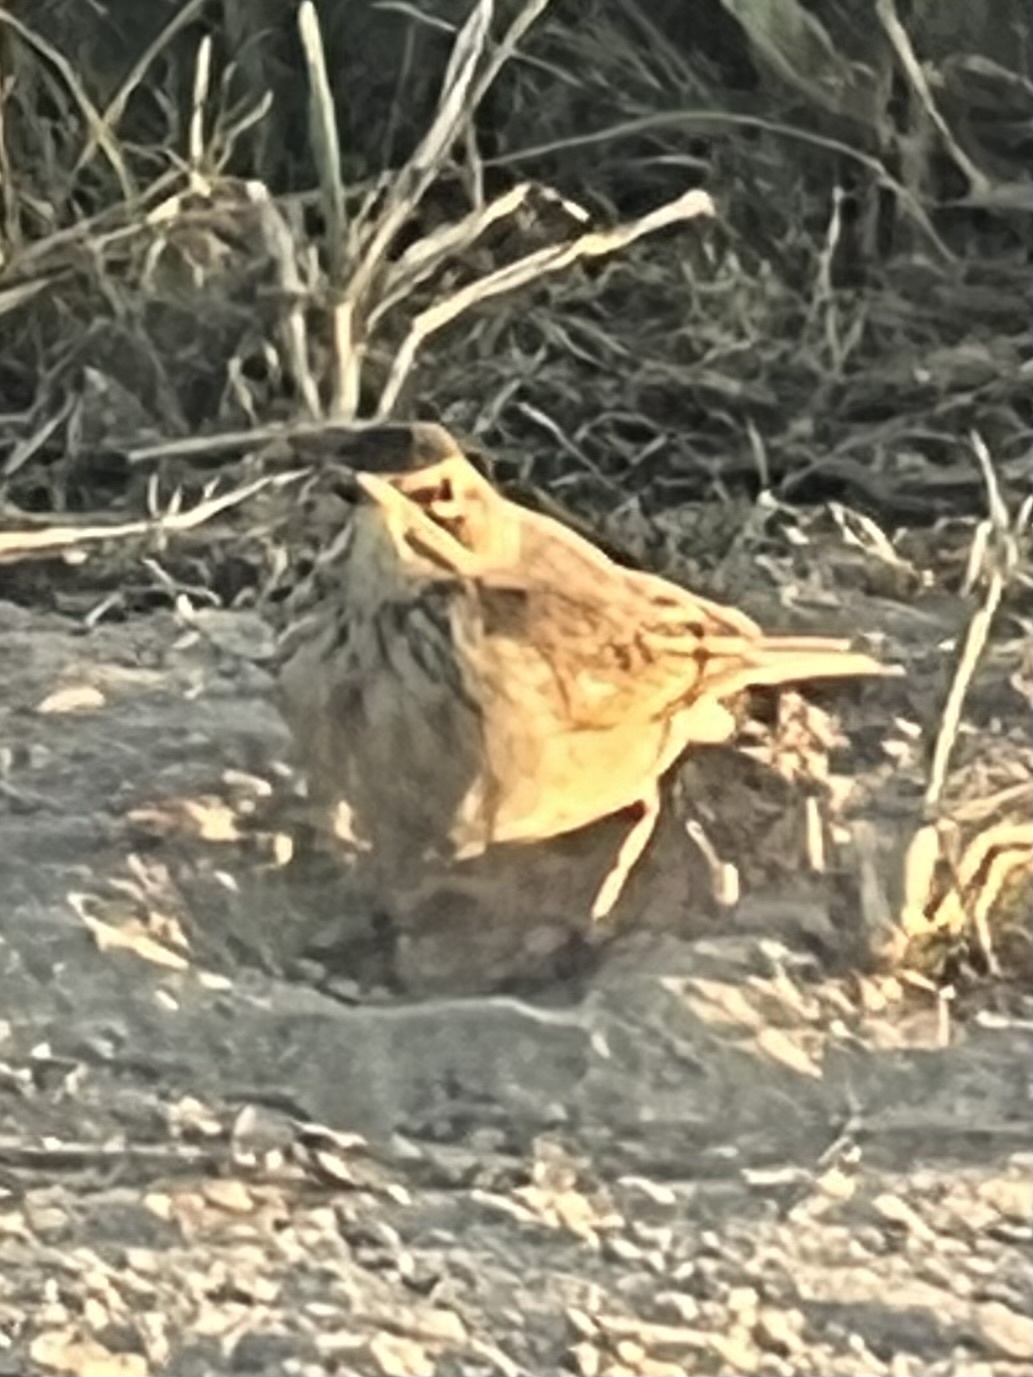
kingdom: Animalia
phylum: Chordata
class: Aves
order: Passeriformes
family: Motacillidae
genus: Anthus
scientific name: Anthus cinnamomeus
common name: African pipit
